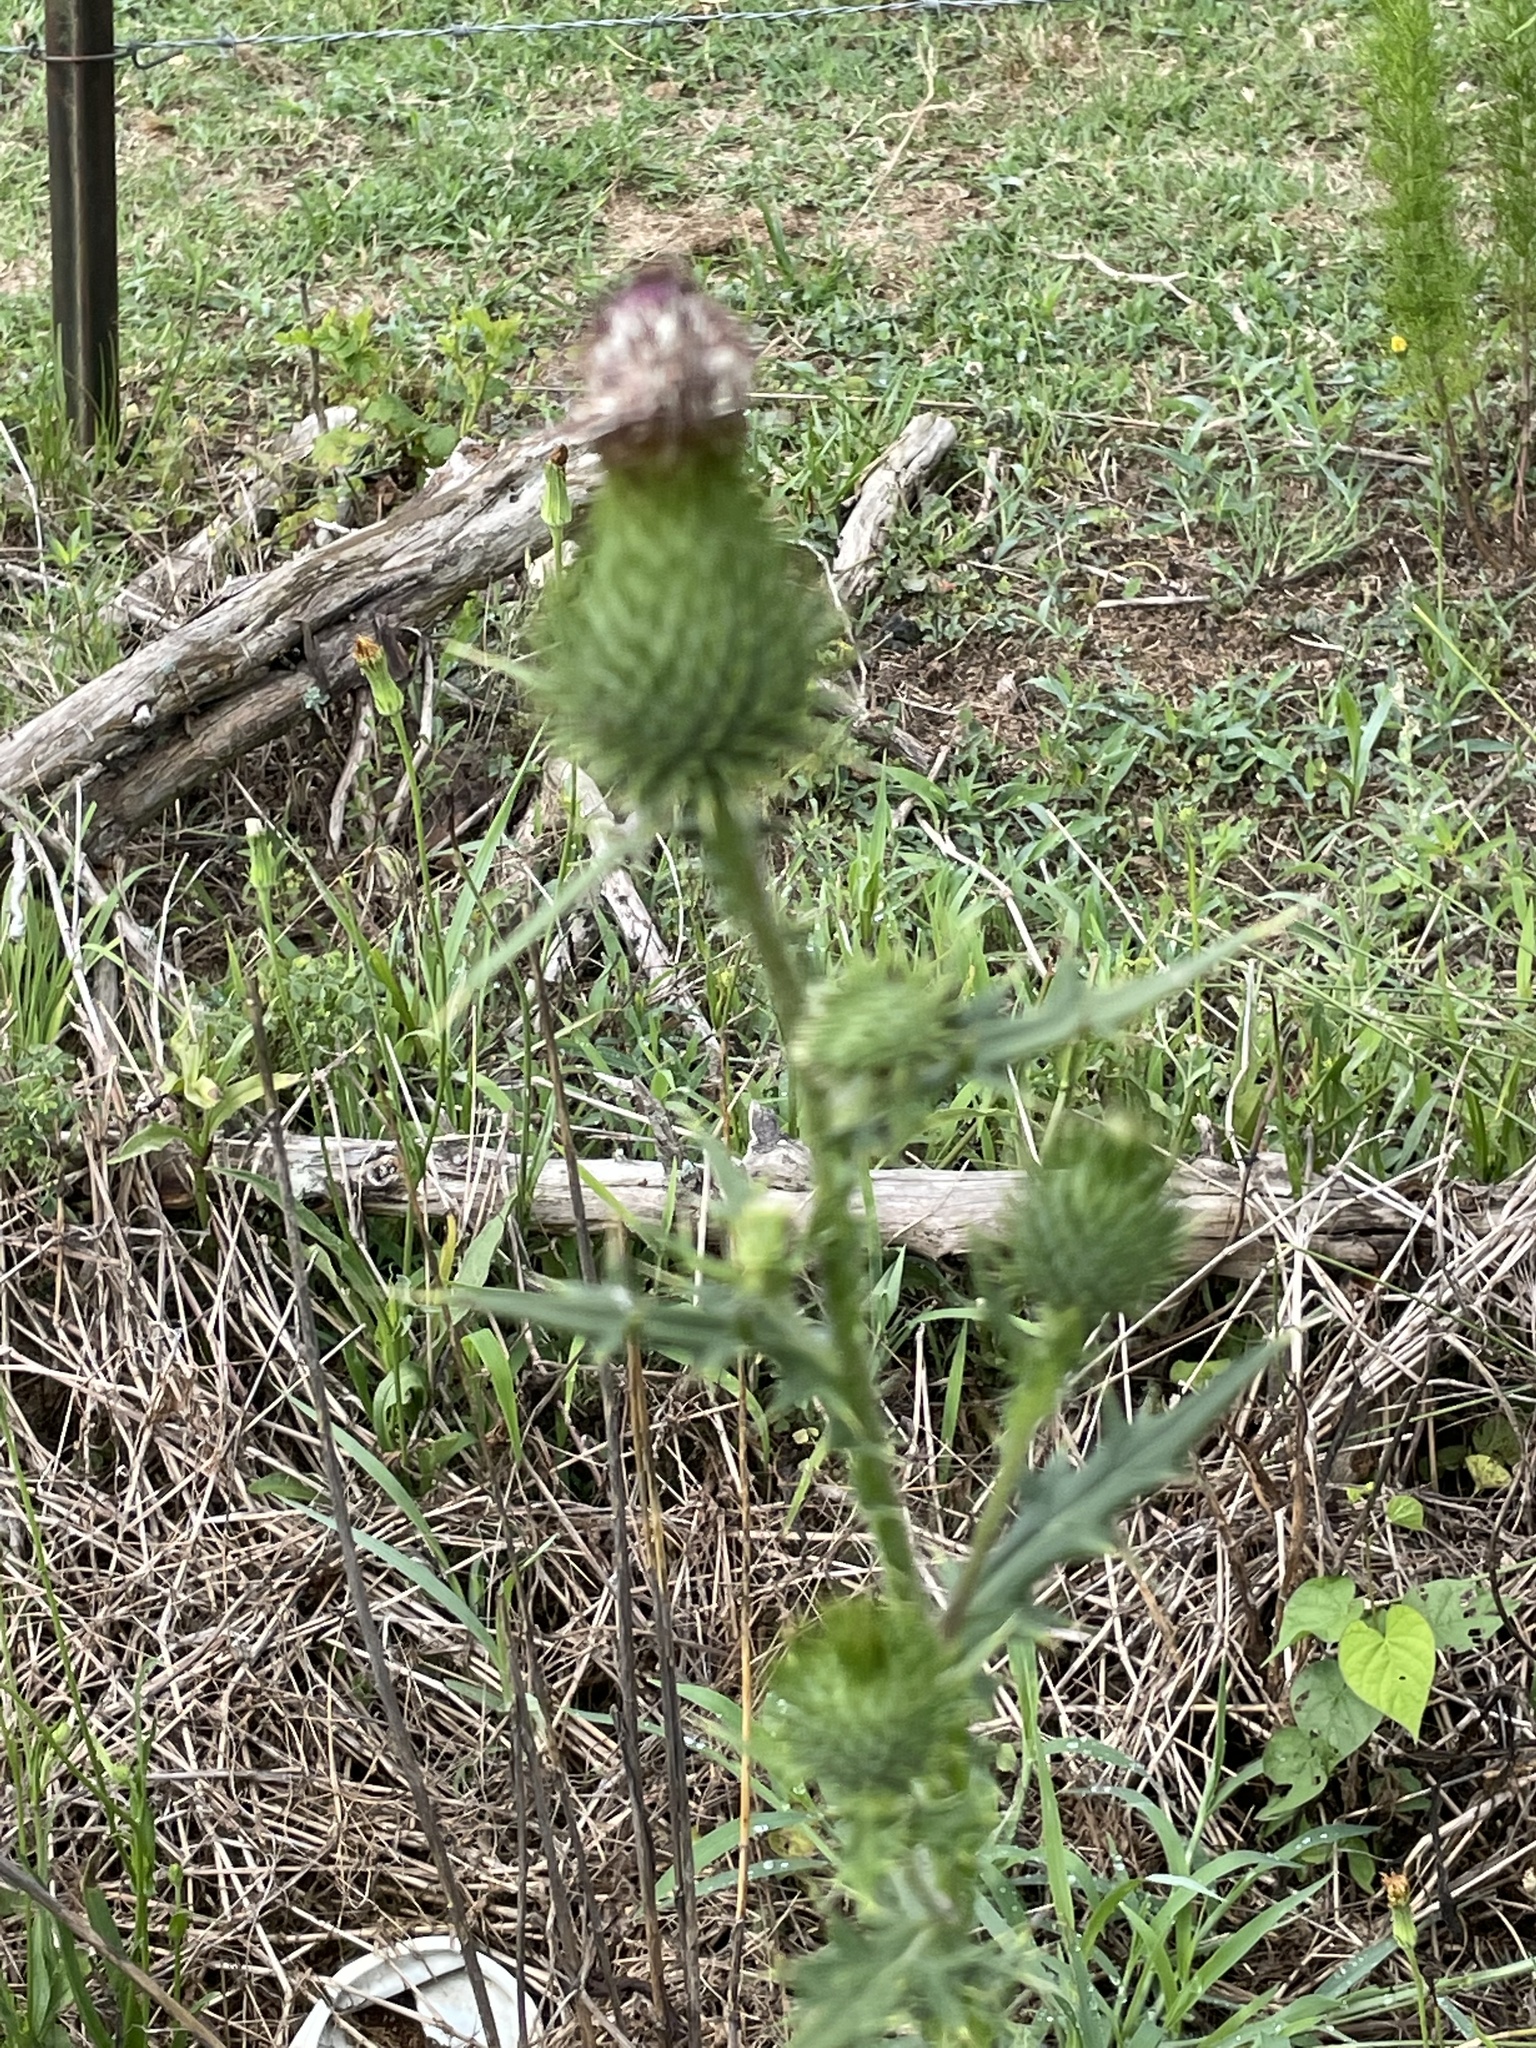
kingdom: Plantae
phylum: Tracheophyta
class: Magnoliopsida
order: Asterales
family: Asteraceae
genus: Cirsium
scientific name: Cirsium vulgare
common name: Bull thistle
